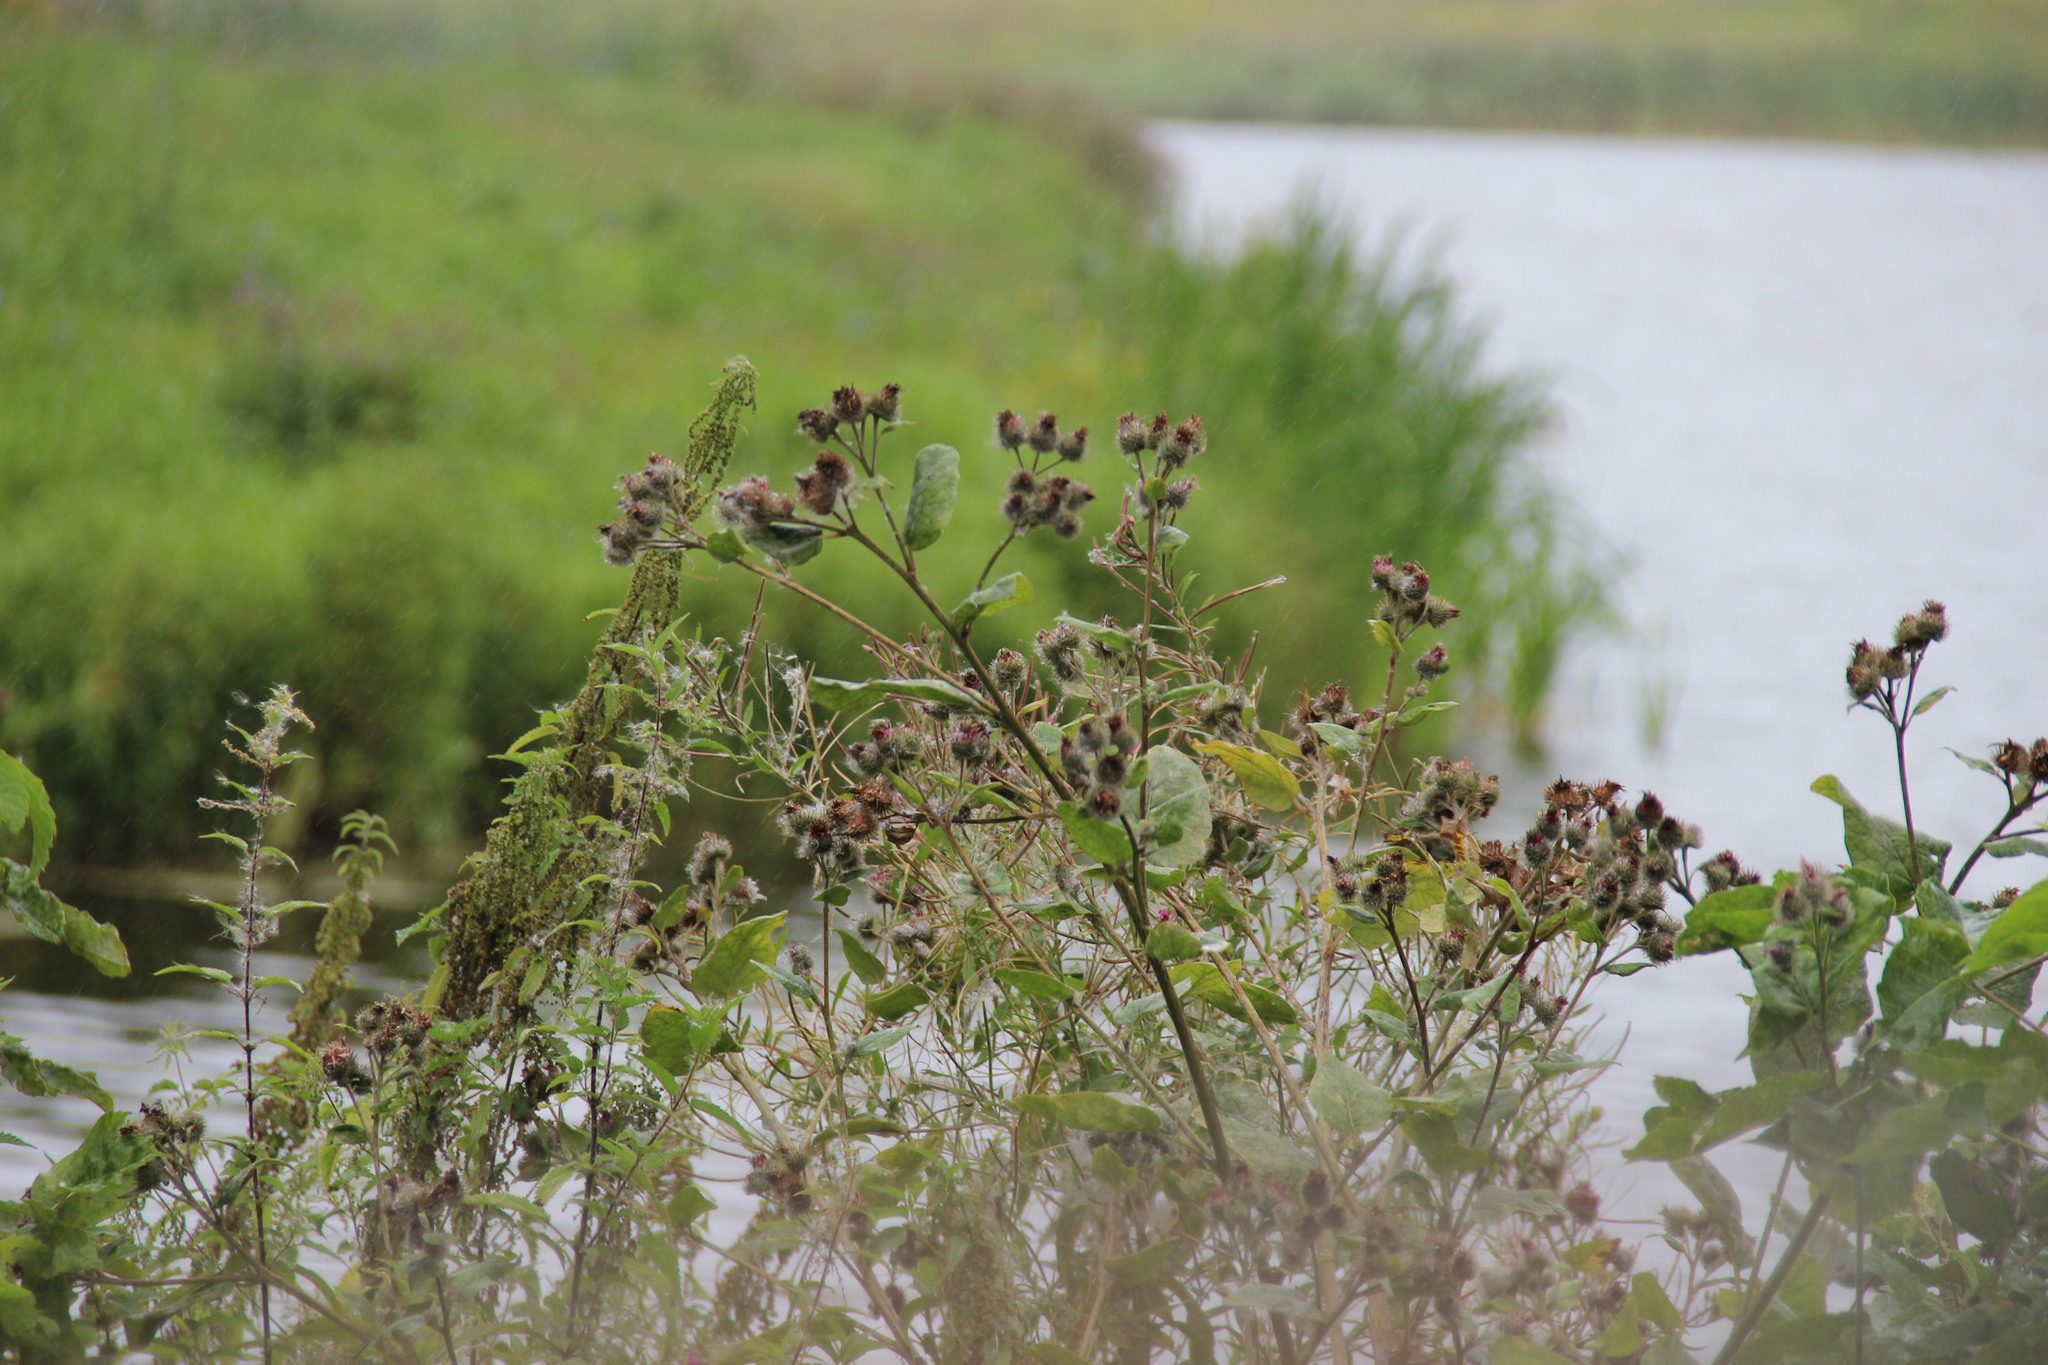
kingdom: Plantae
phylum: Tracheophyta
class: Magnoliopsida
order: Asterales
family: Asteraceae
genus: Arctium
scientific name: Arctium tomentosum
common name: Woolly burdock
